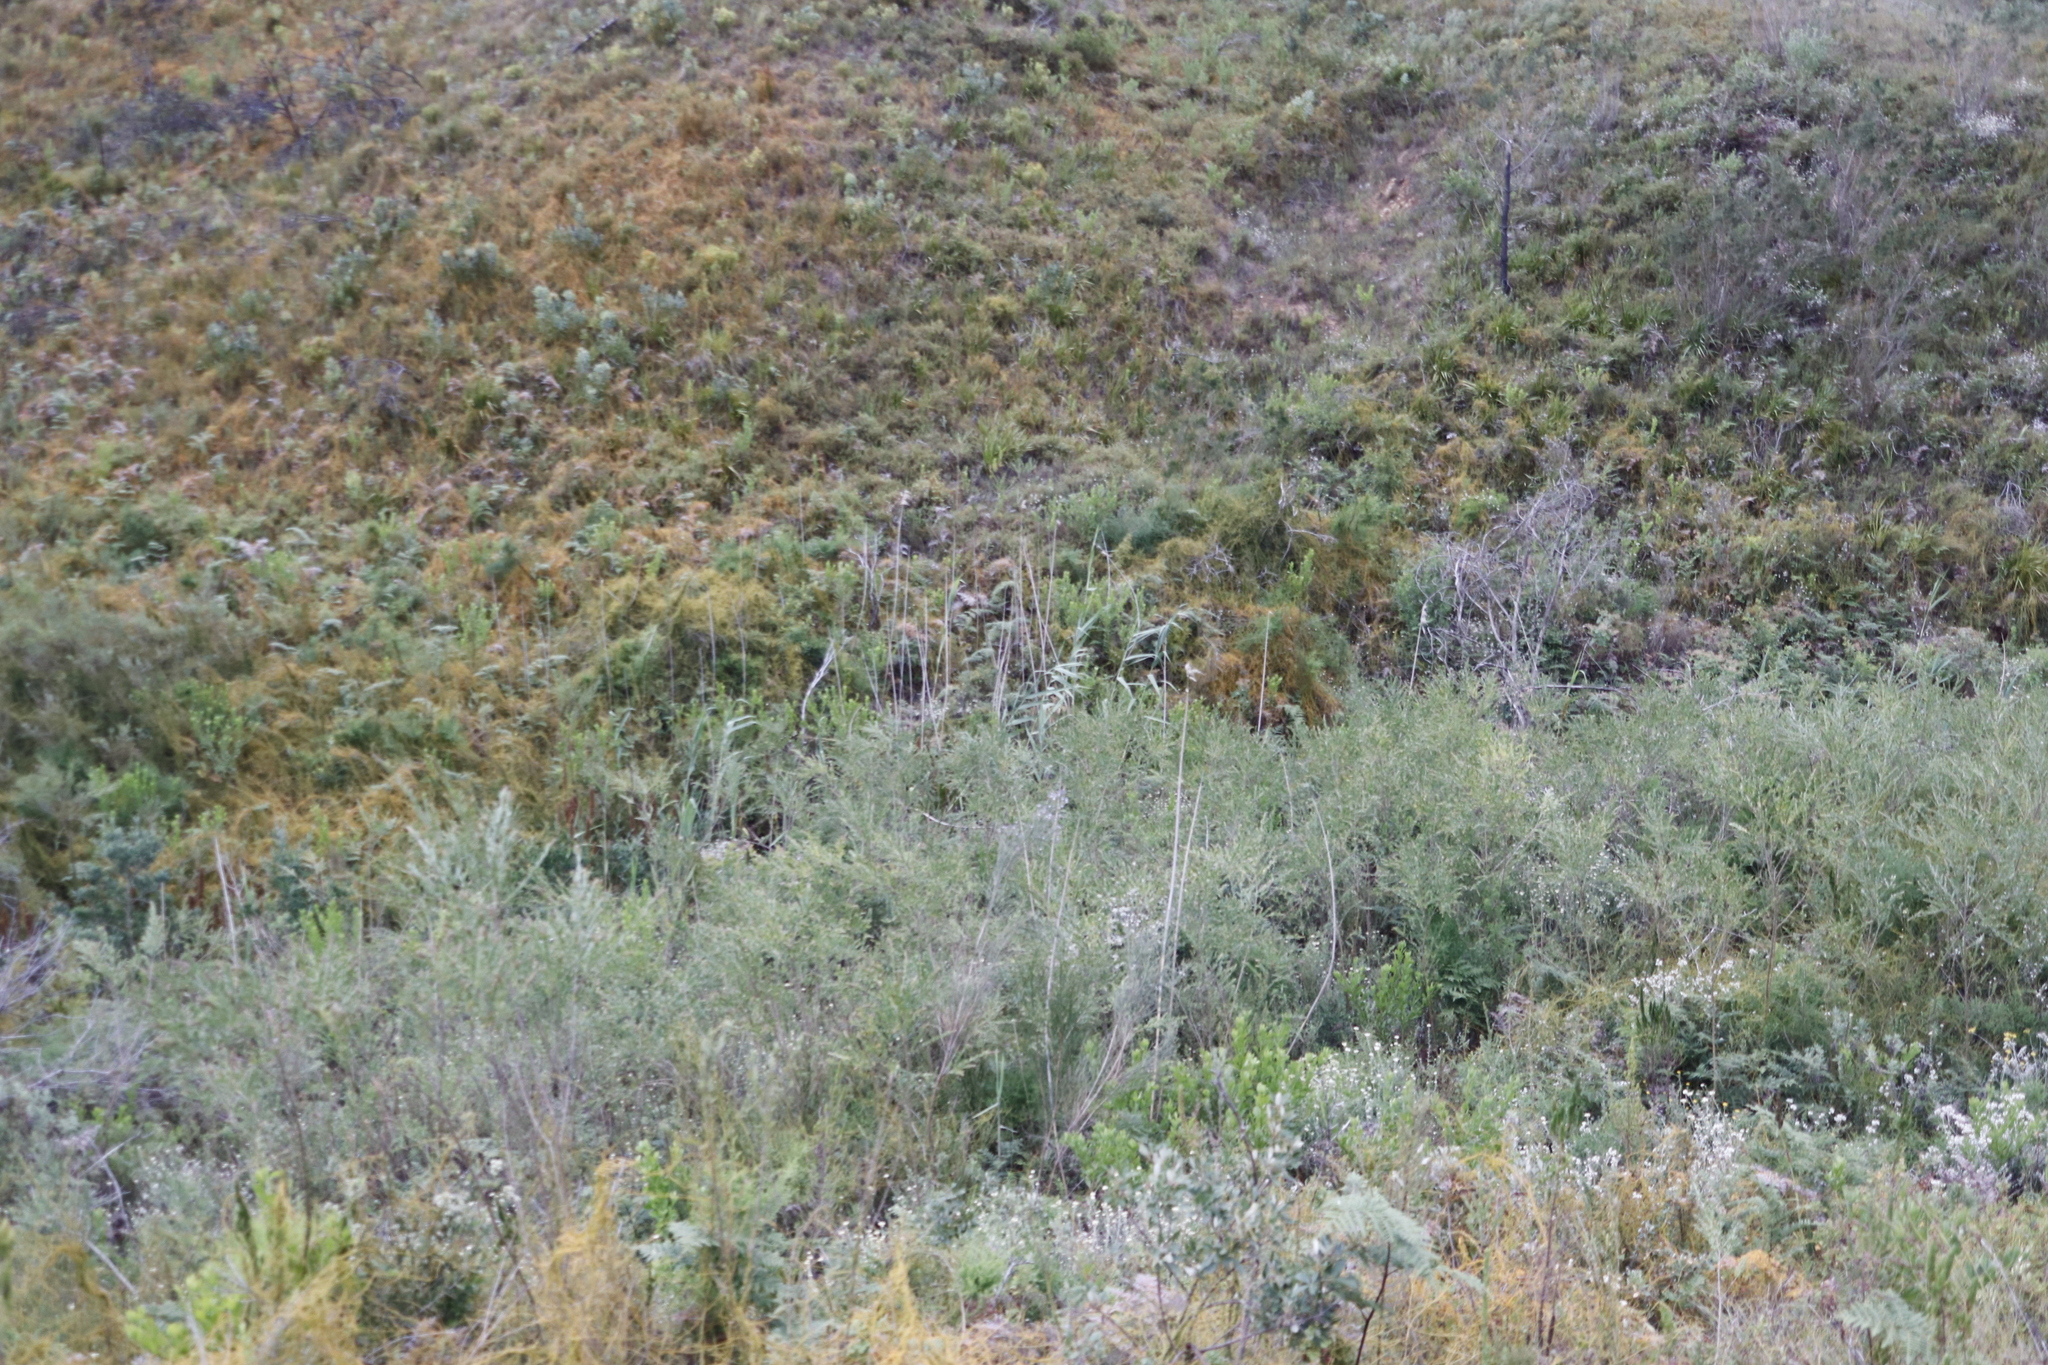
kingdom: Plantae
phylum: Tracheophyta
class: Liliopsida
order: Poales
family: Poaceae
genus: Phragmites
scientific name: Phragmites australis
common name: Common reed
